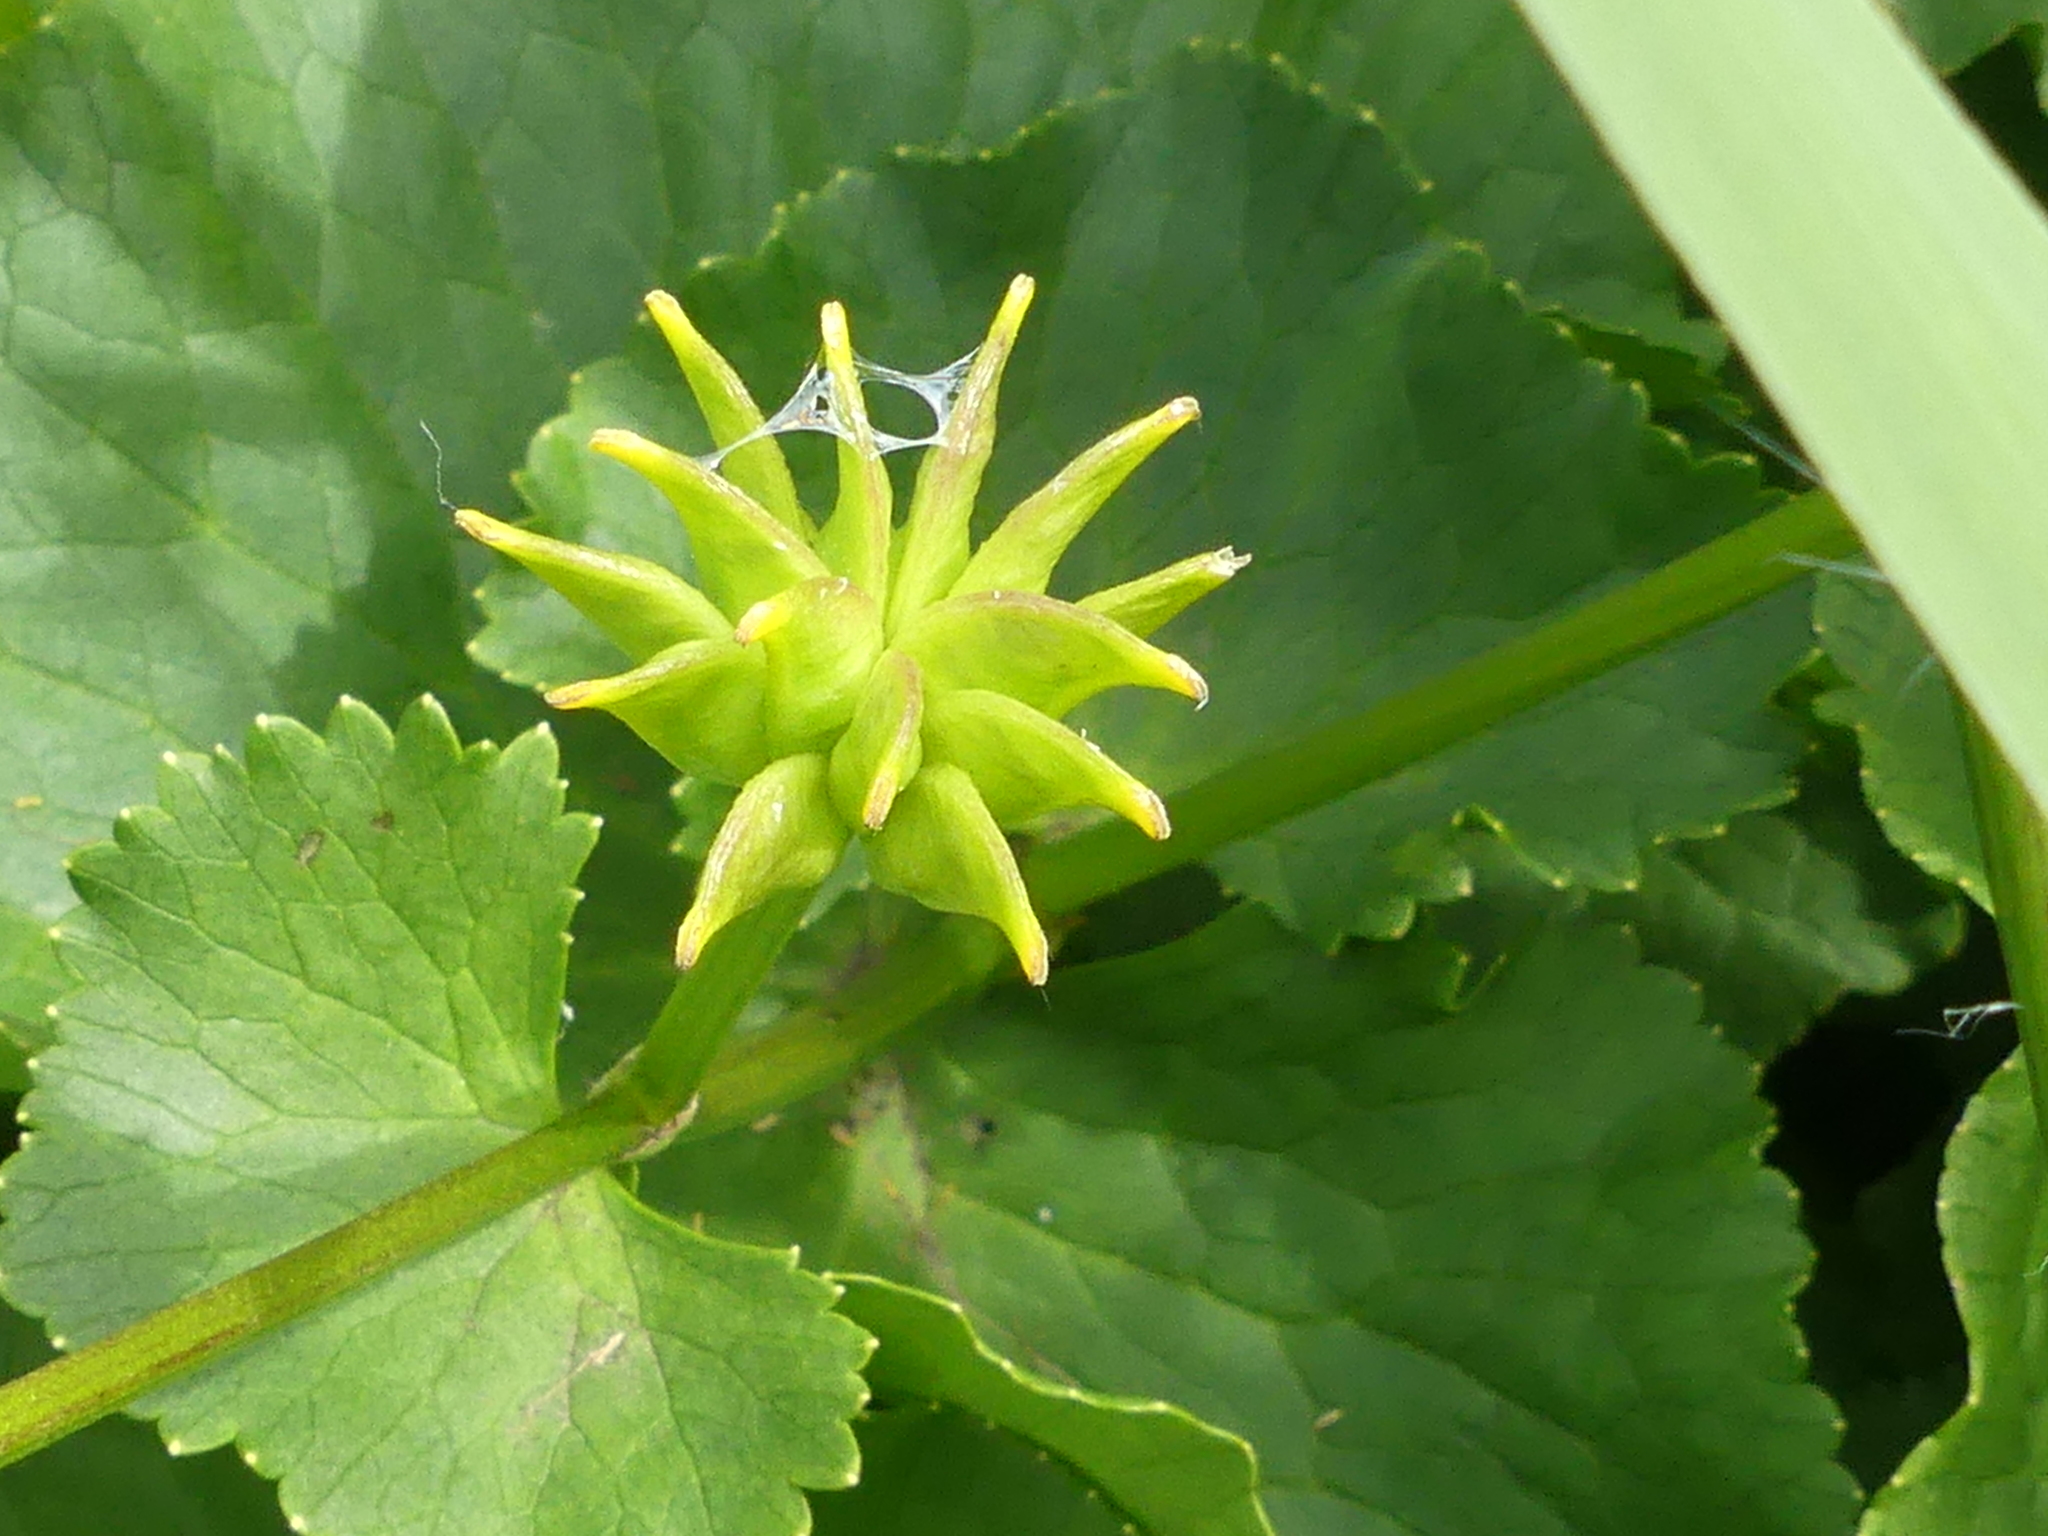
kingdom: Plantae
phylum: Tracheophyta
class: Magnoliopsida
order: Ranunculales
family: Ranunculaceae
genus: Caltha
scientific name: Caltha palustris
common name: Marsh marigold
